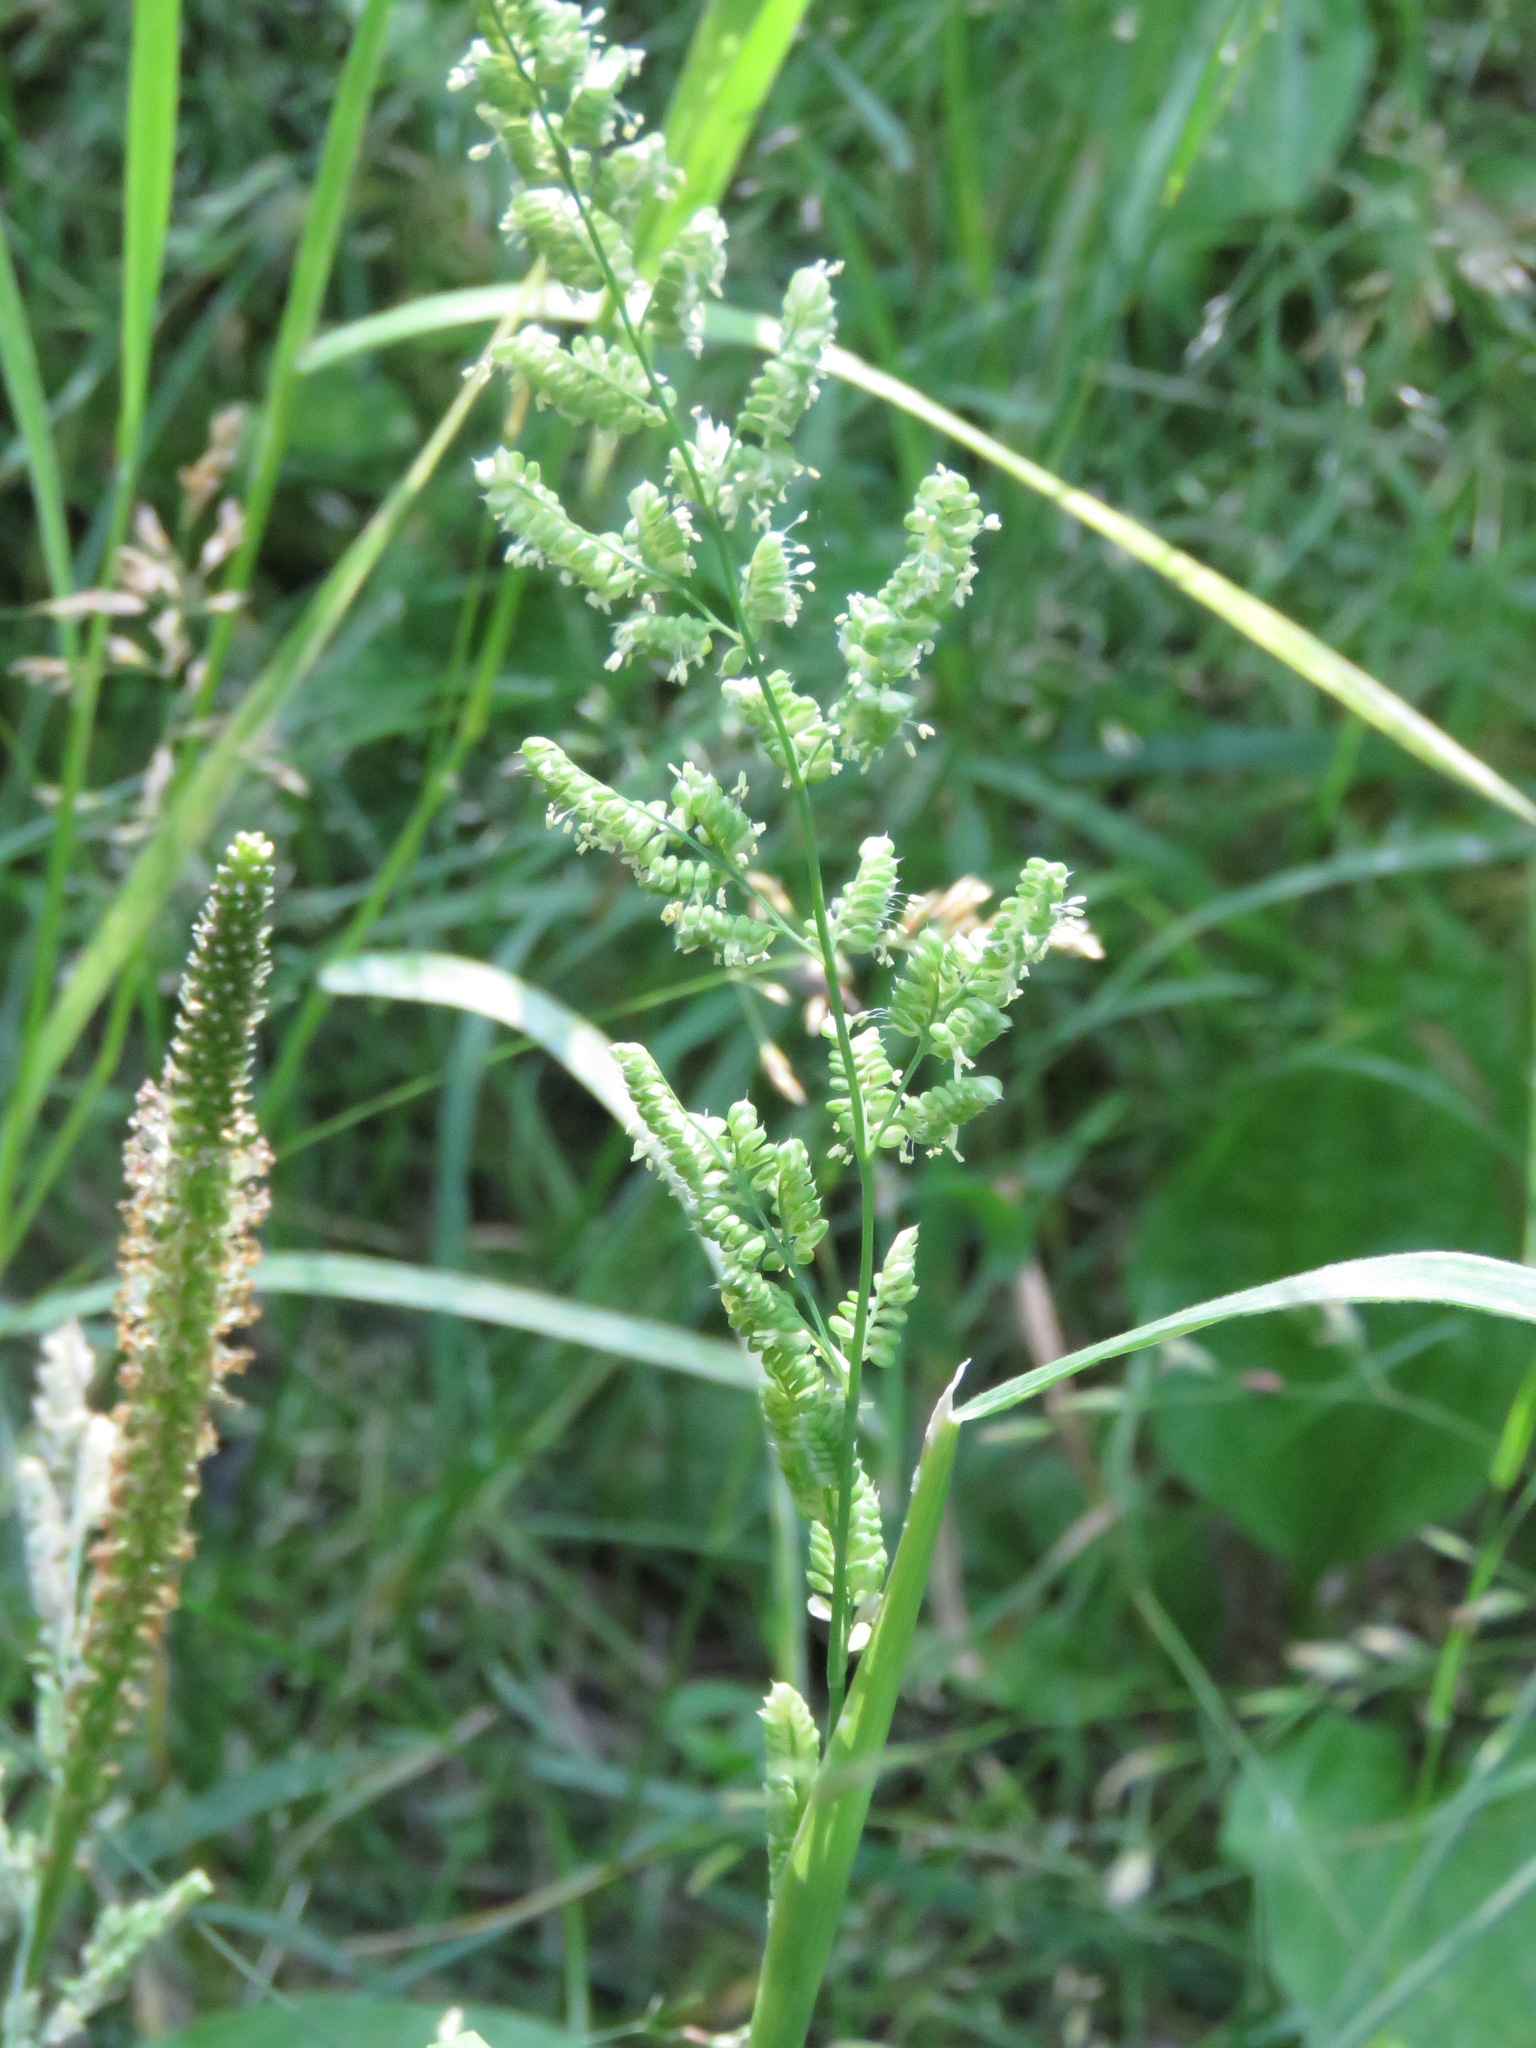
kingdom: Plantae
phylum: Tracheophyta
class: Liliopsida
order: Poales
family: Poaceae
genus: Beckmannia
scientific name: Beckmannia syzigachne
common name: American slough-grass
